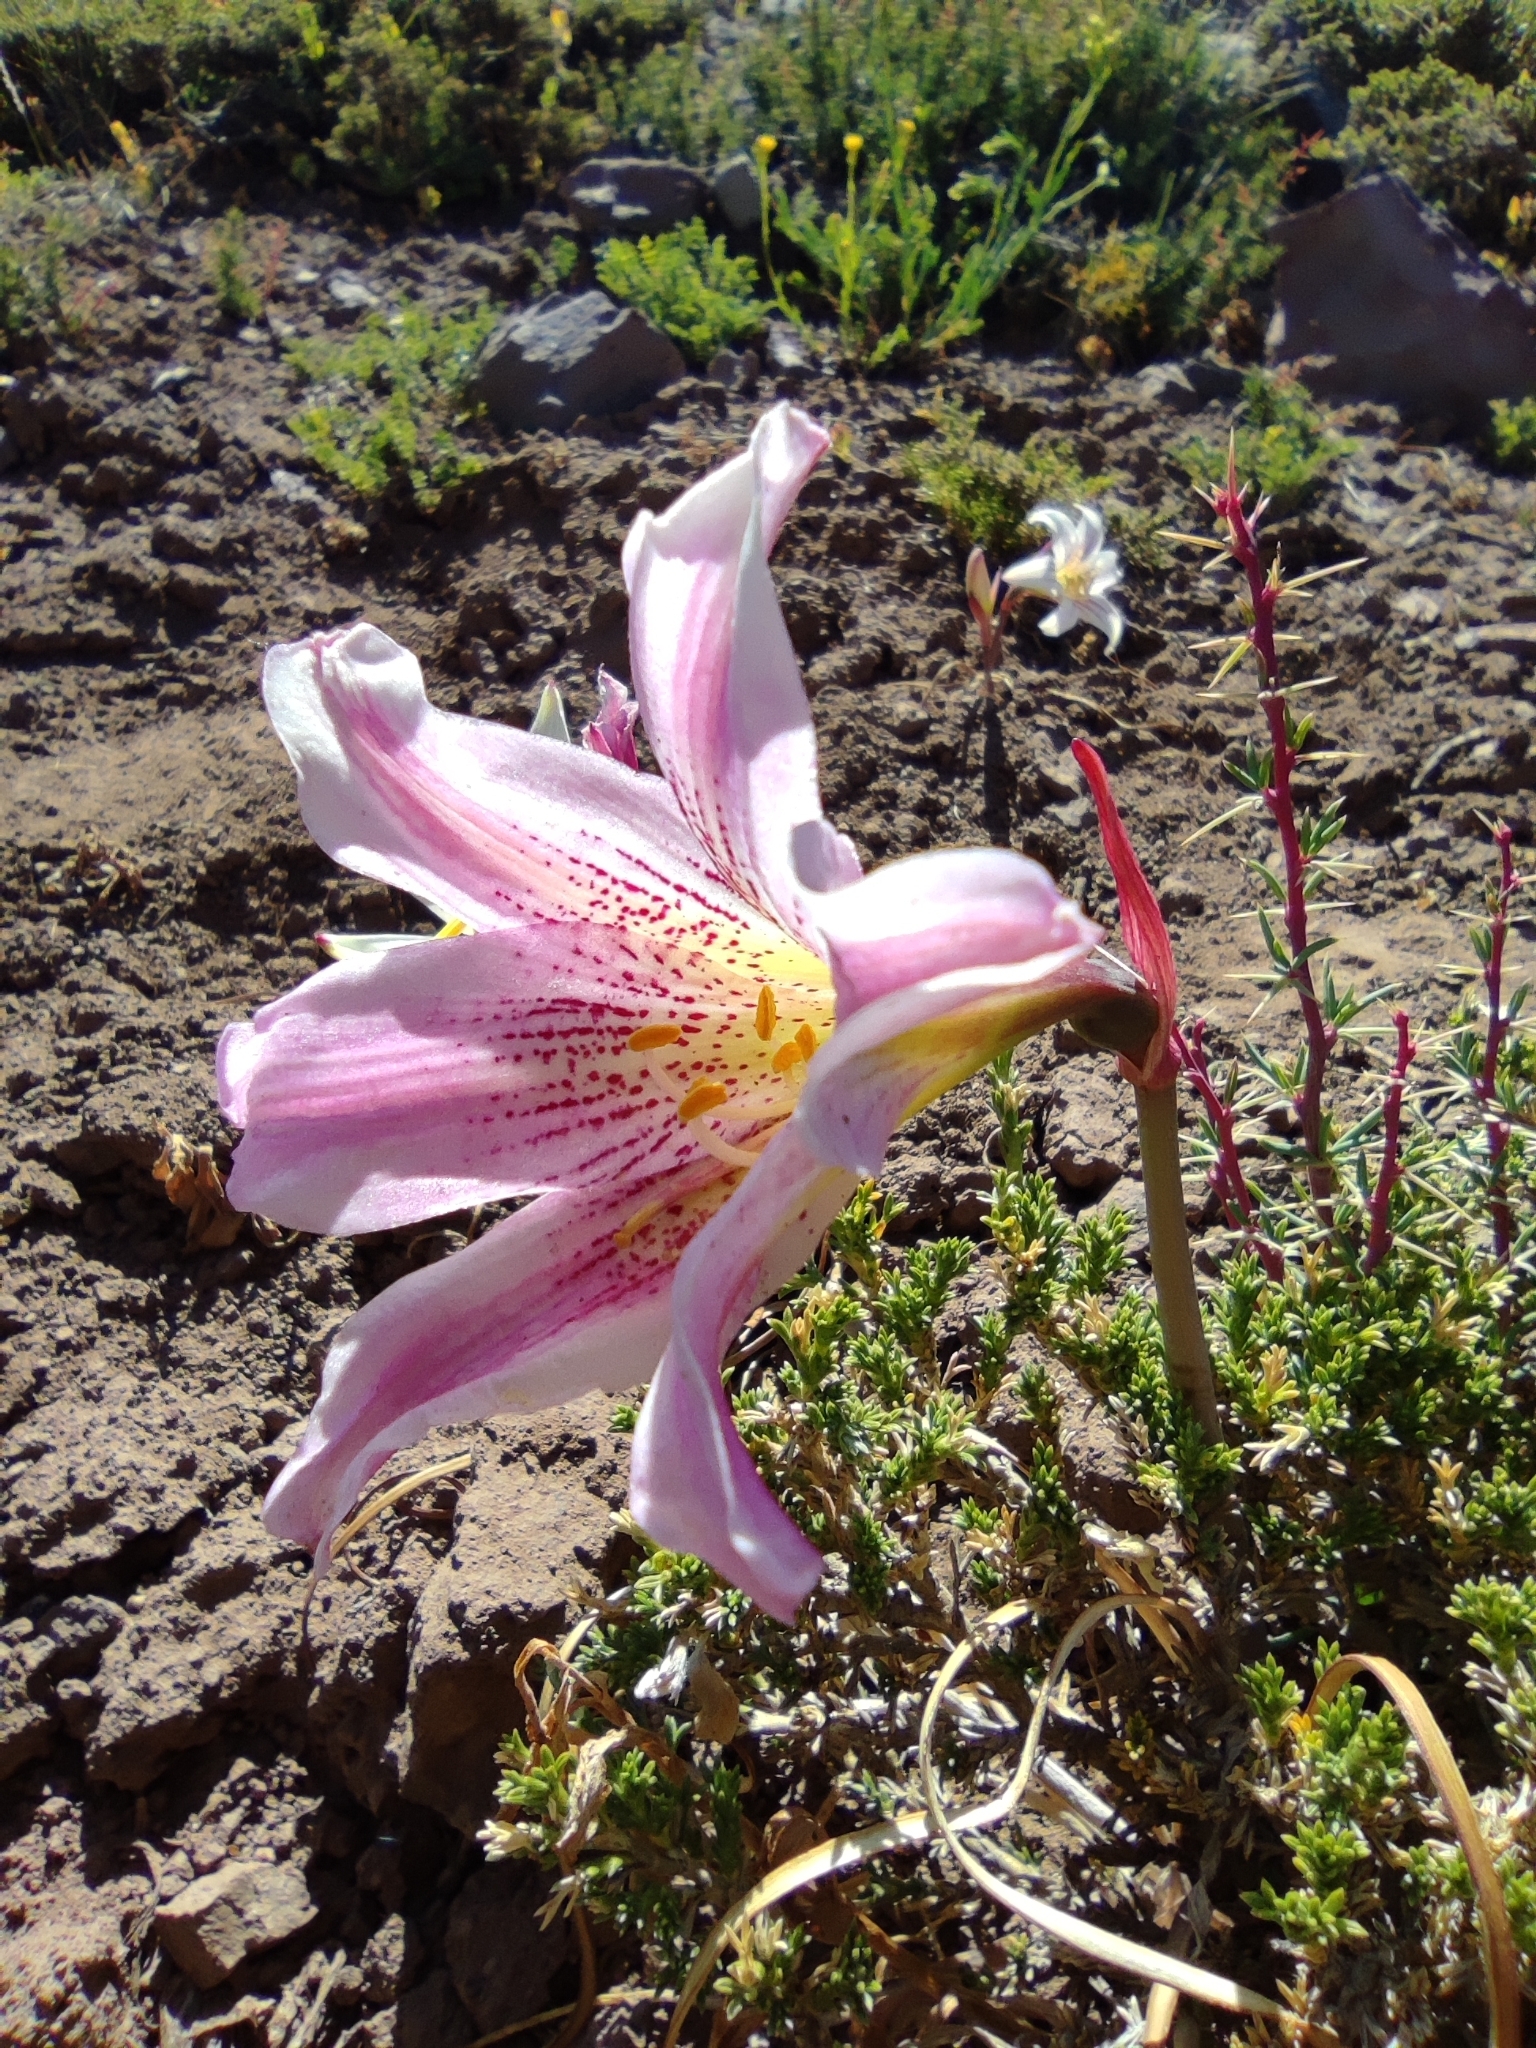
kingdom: Plantae
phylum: Tracheophyta
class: Liliopsida
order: Asparagales
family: Amaryllidaceae
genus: Rhodolirium
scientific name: Rhodolirium montanum
